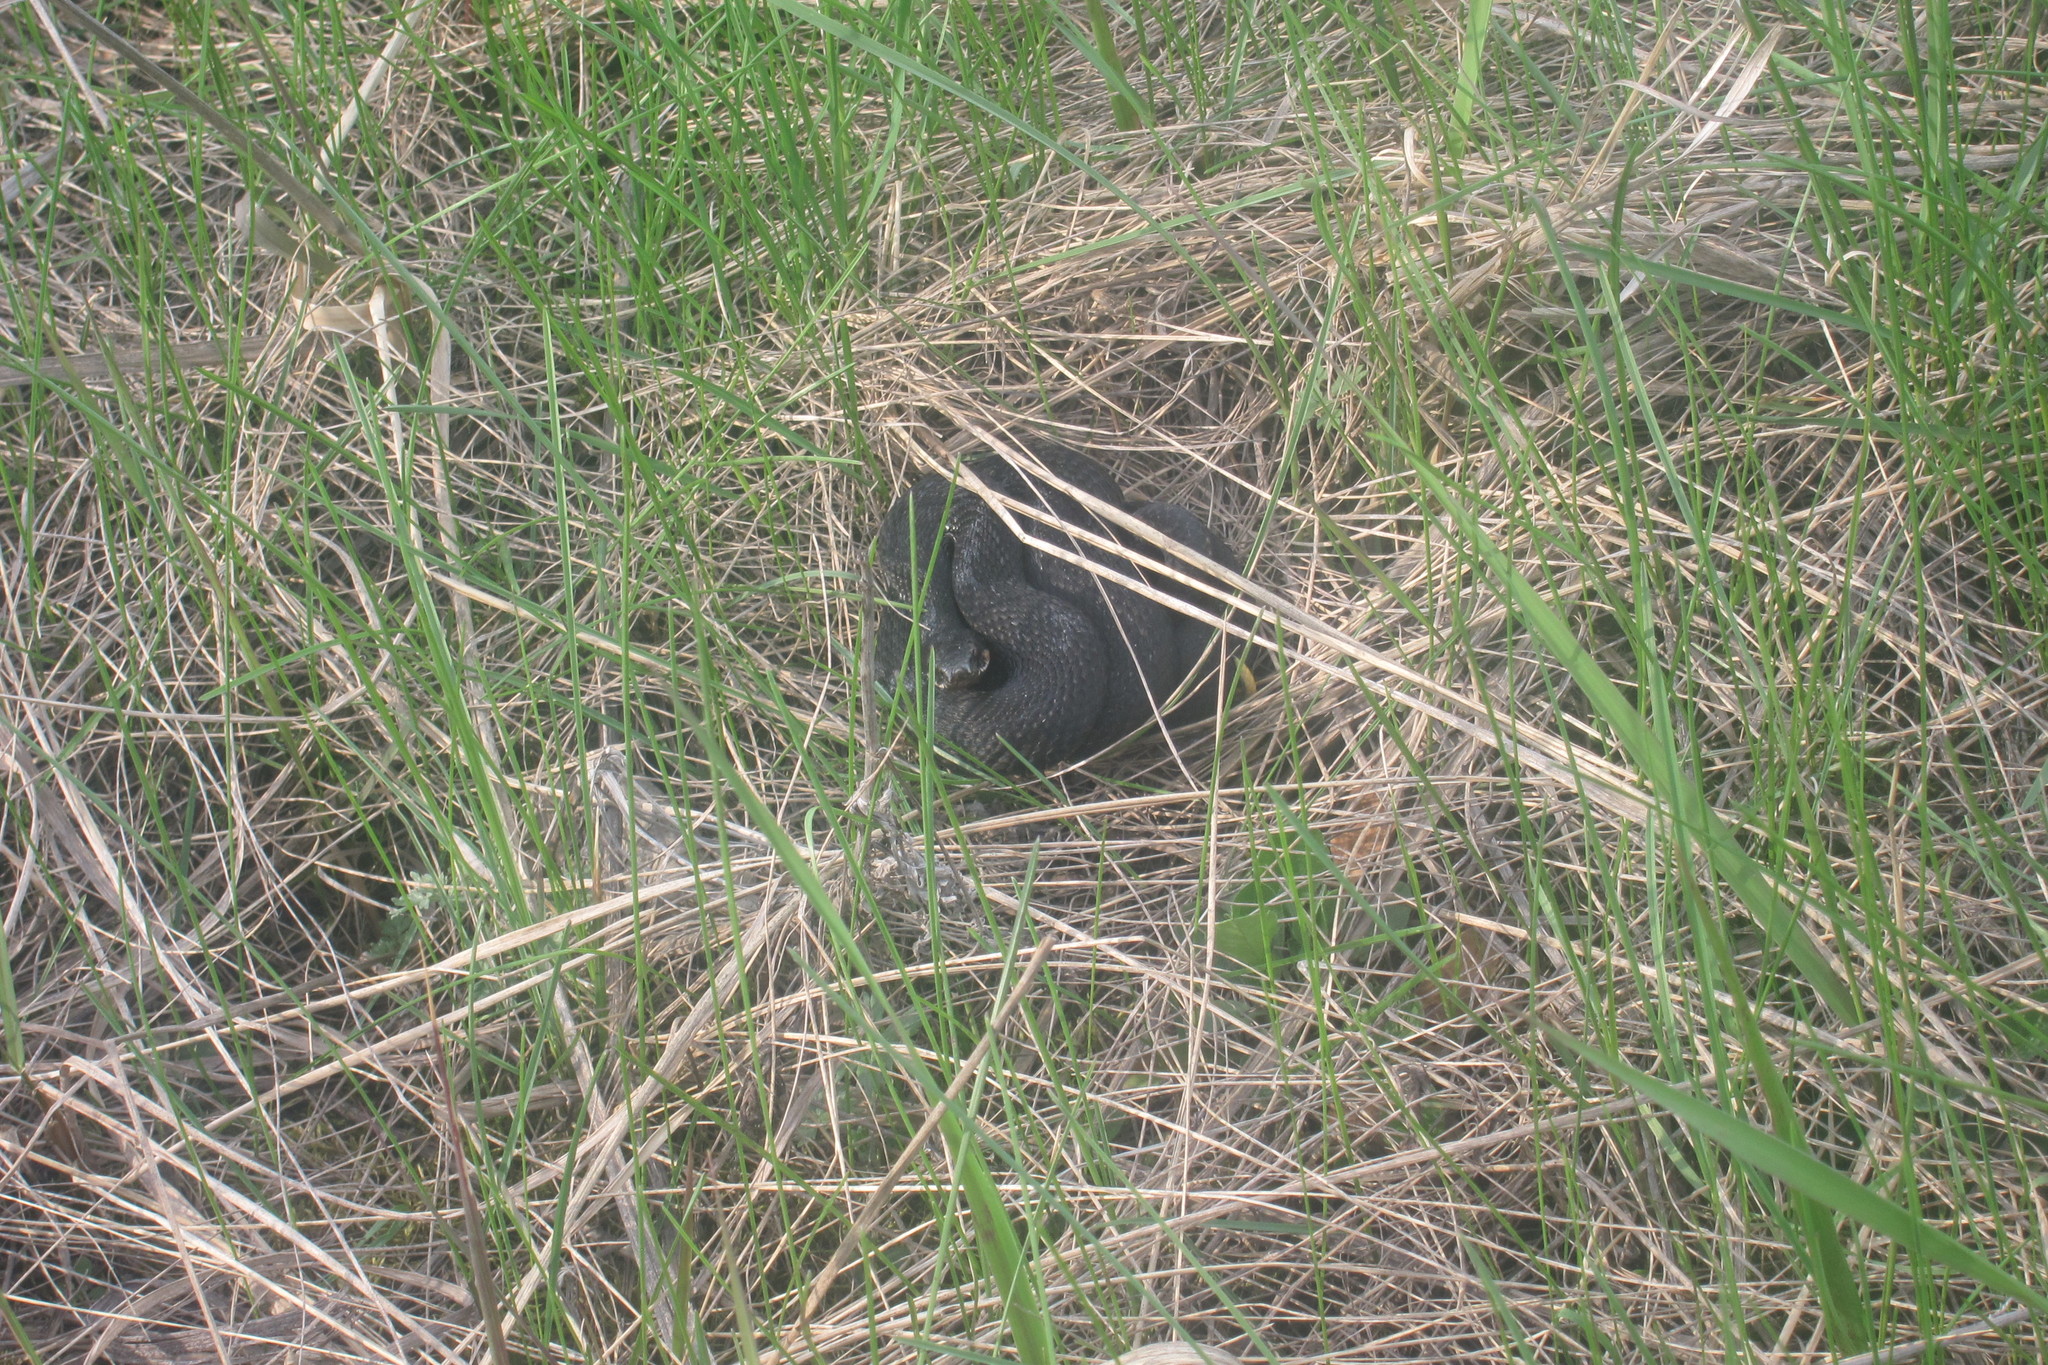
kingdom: Animalia
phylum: Chordata
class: Squamata
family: Viperidae
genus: Vipera
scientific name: Vipera berus
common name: Adder
